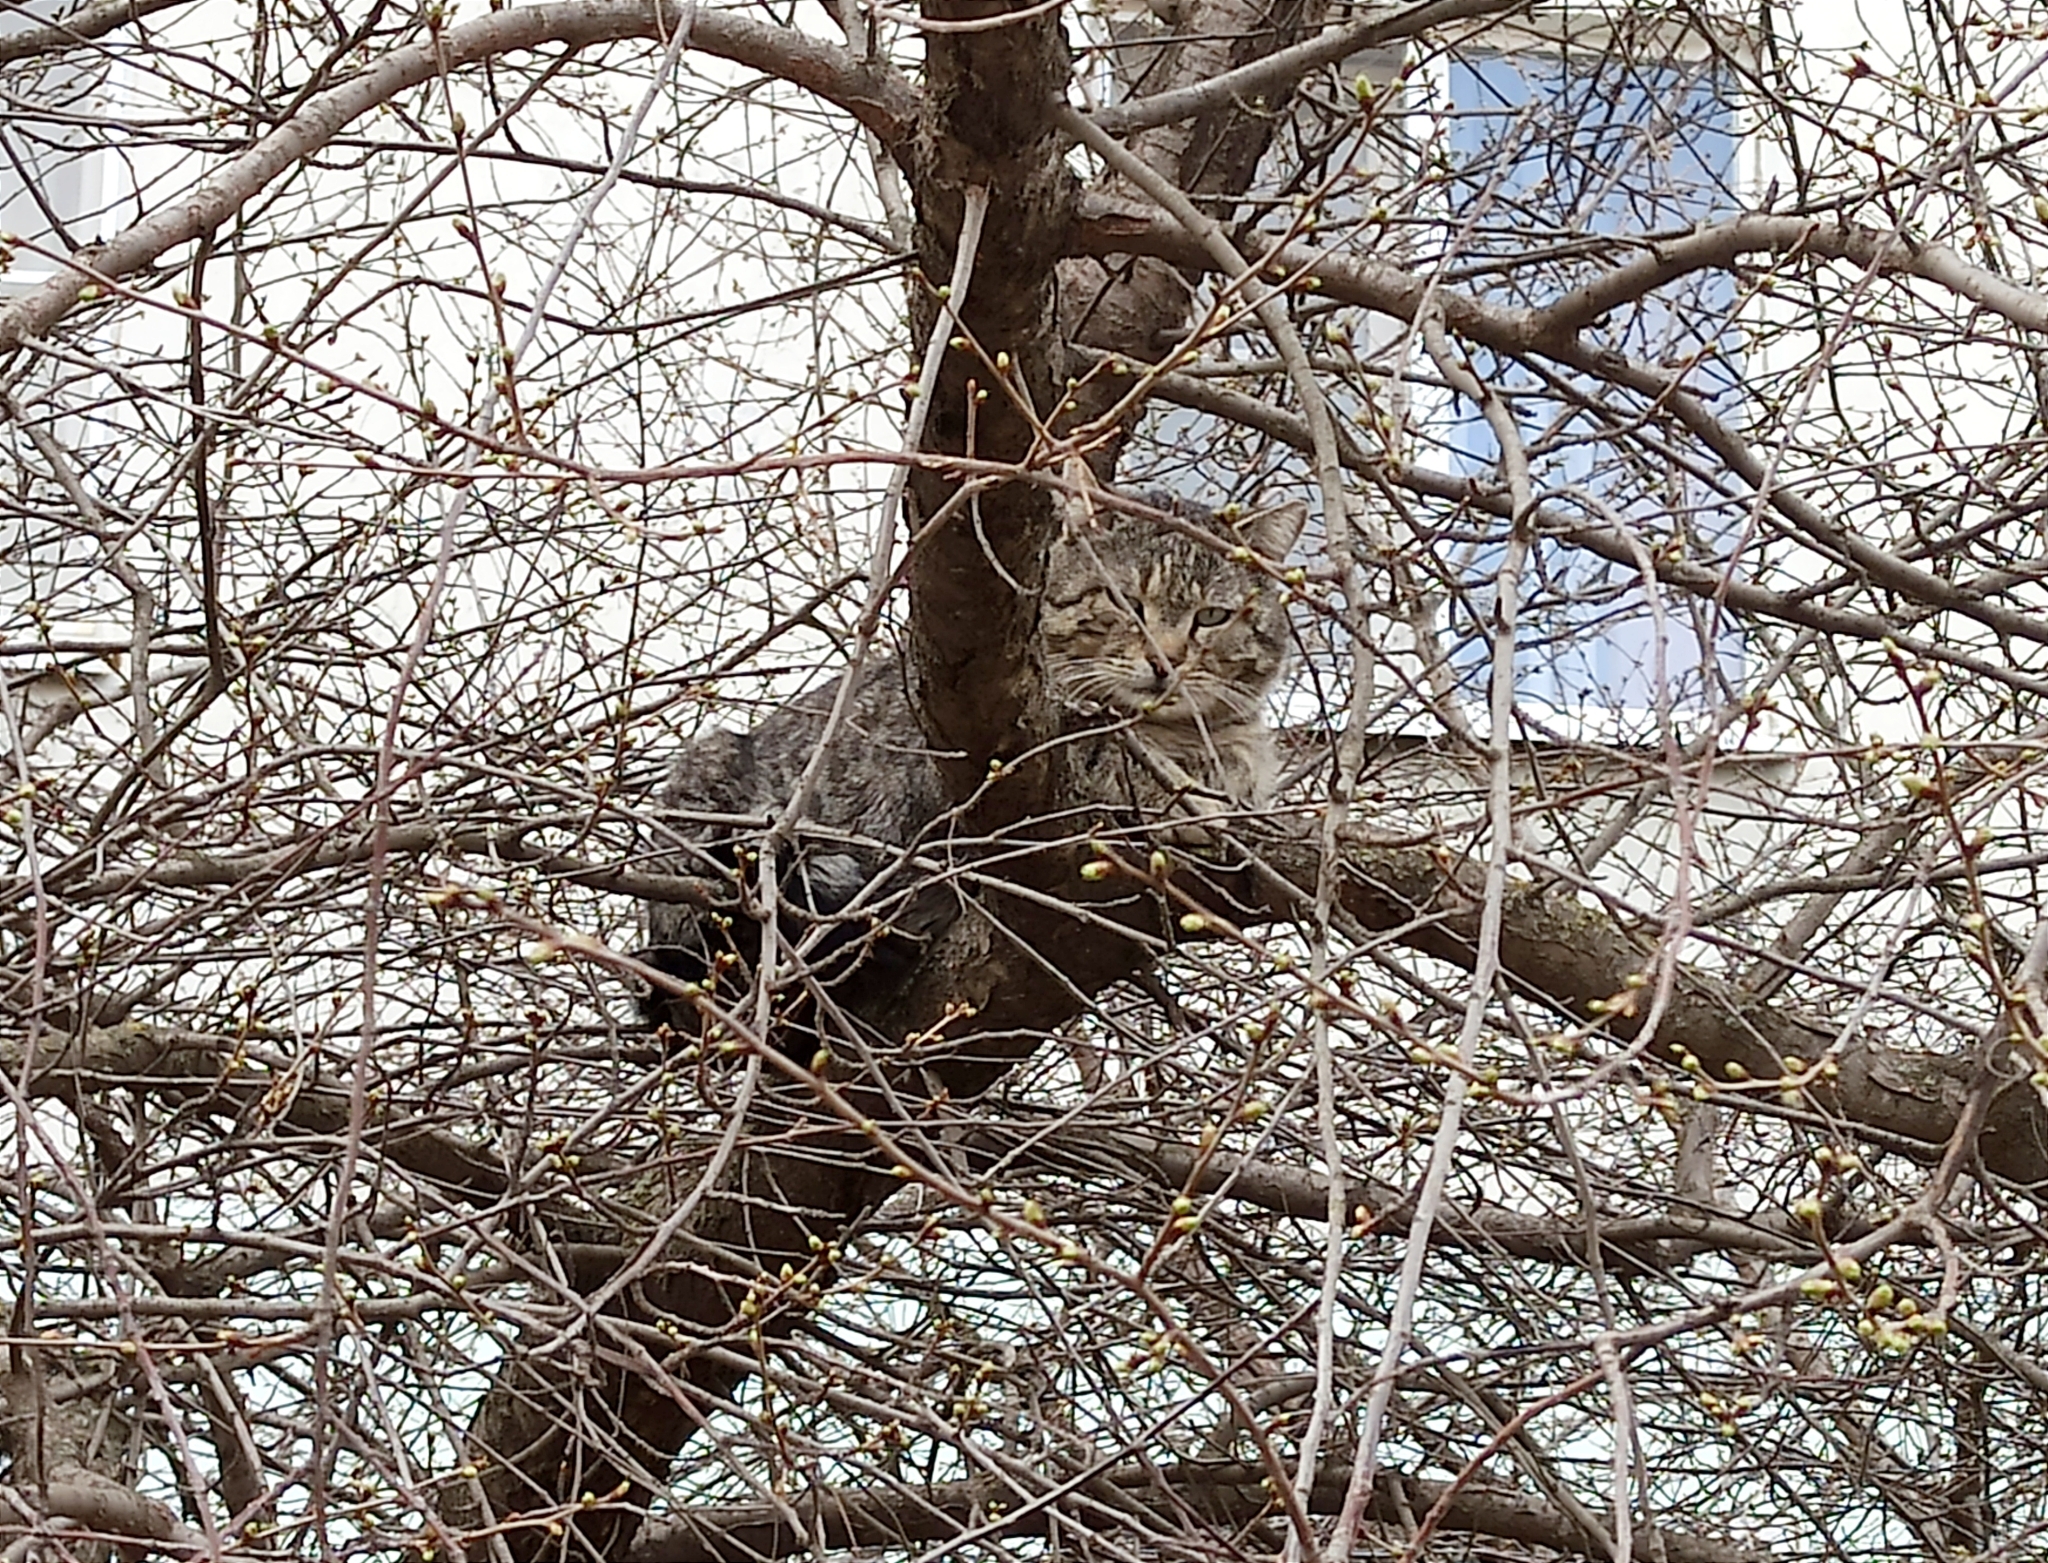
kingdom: Animalia
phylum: Chordata
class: Mammalia
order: Carnivora
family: Felidae
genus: Felis
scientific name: Felis catus
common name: Domestic cat
